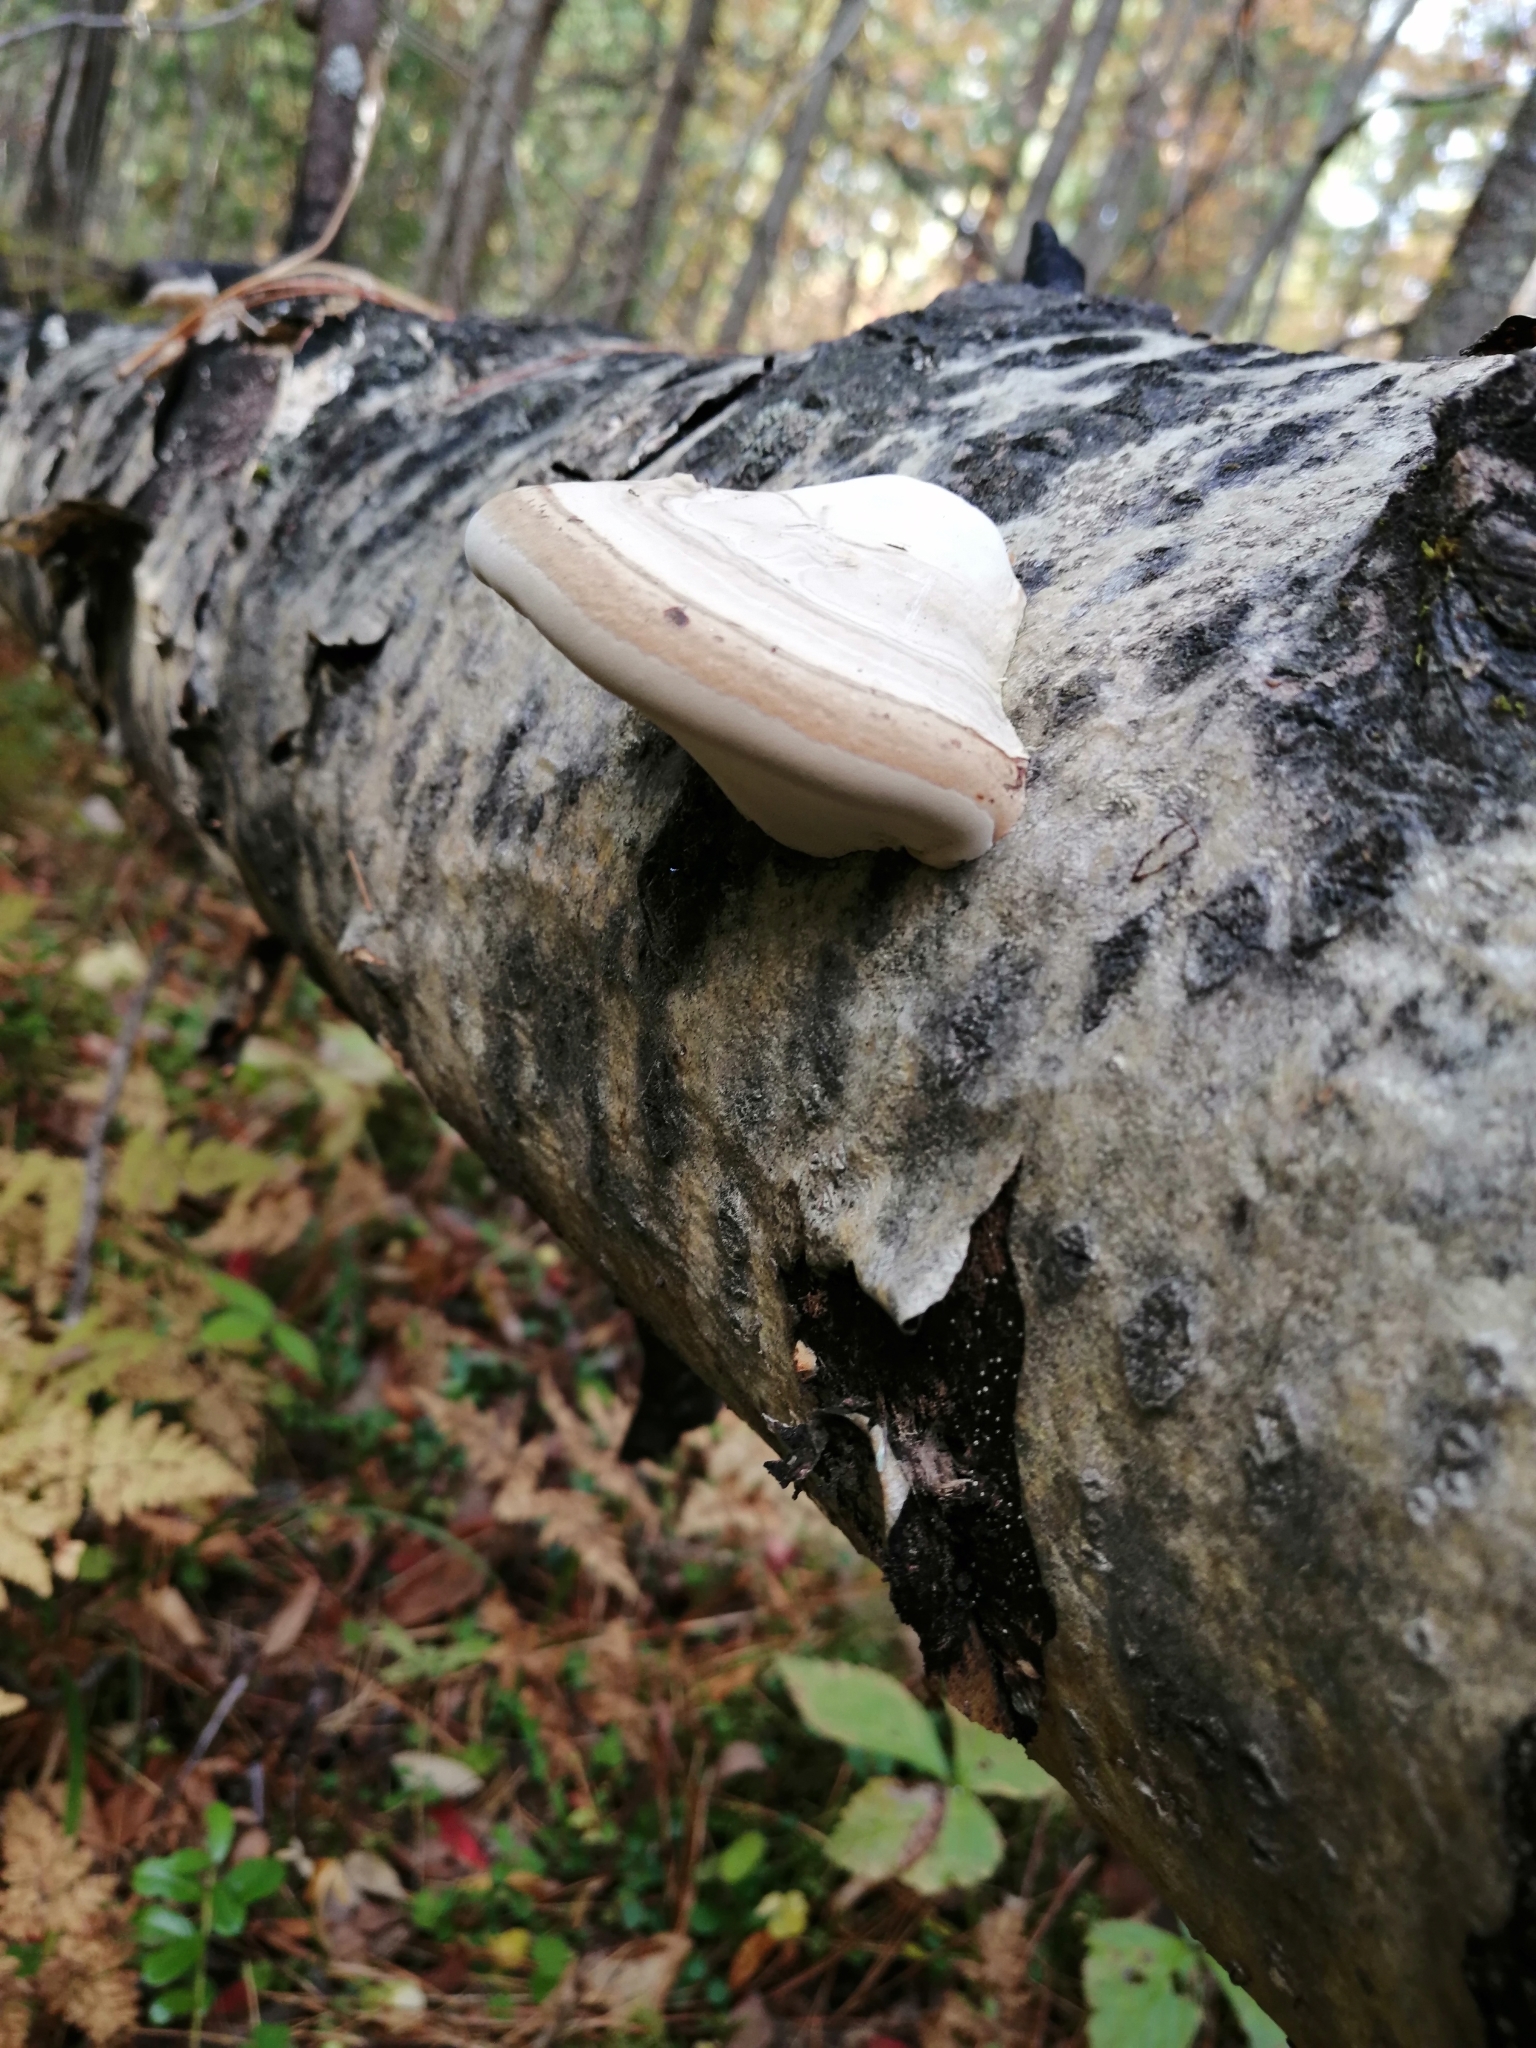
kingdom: Fungi
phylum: Basidiomycota
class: Agaricomycetes
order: Polyporales
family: Polyporaceae
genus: Fomes
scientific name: Fomes fomentarius
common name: Hoof fungus
